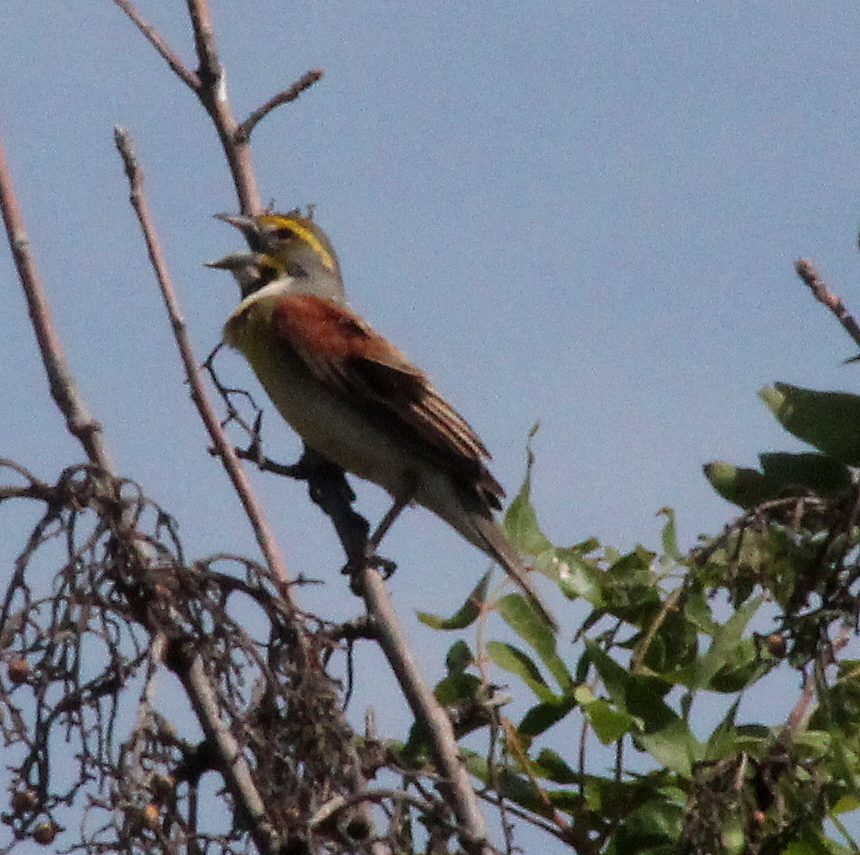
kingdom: Animalia
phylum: Chordata
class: Aves
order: Passeriformes
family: Cardinalidae
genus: Spiza
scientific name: Spiza americana
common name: Dickcissel
